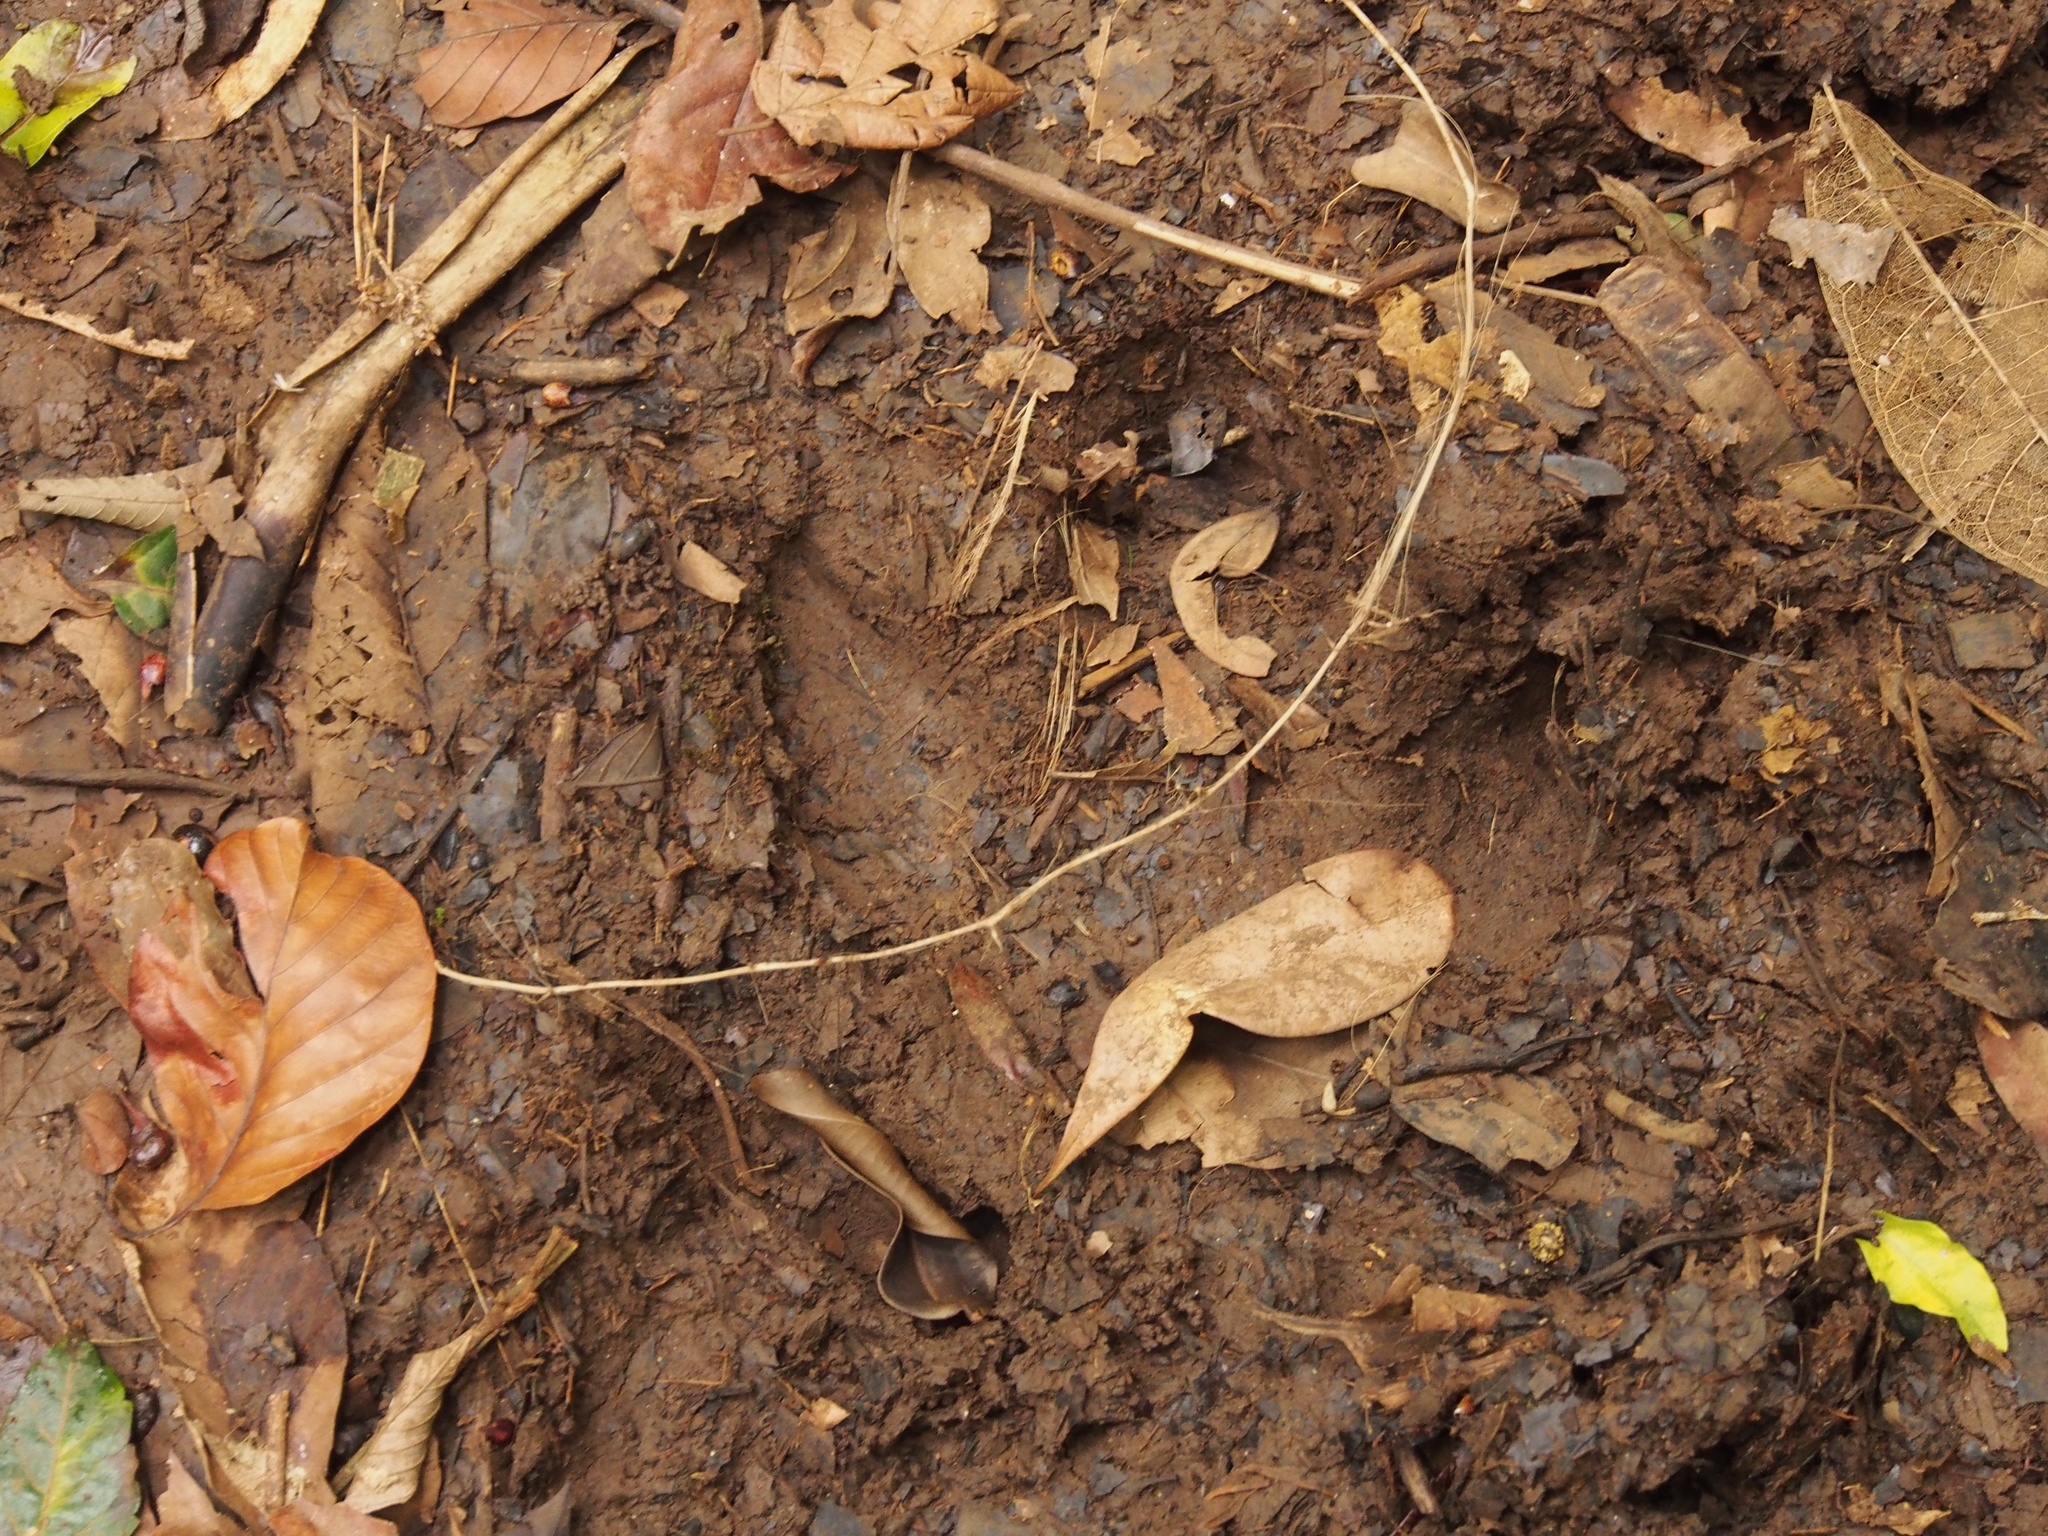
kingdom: Animalia
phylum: Chordata
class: Mammalia
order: Perissodactyla
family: Tapiridae
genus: Tapirella
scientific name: Tapirella bairdii
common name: Baird's tapir
